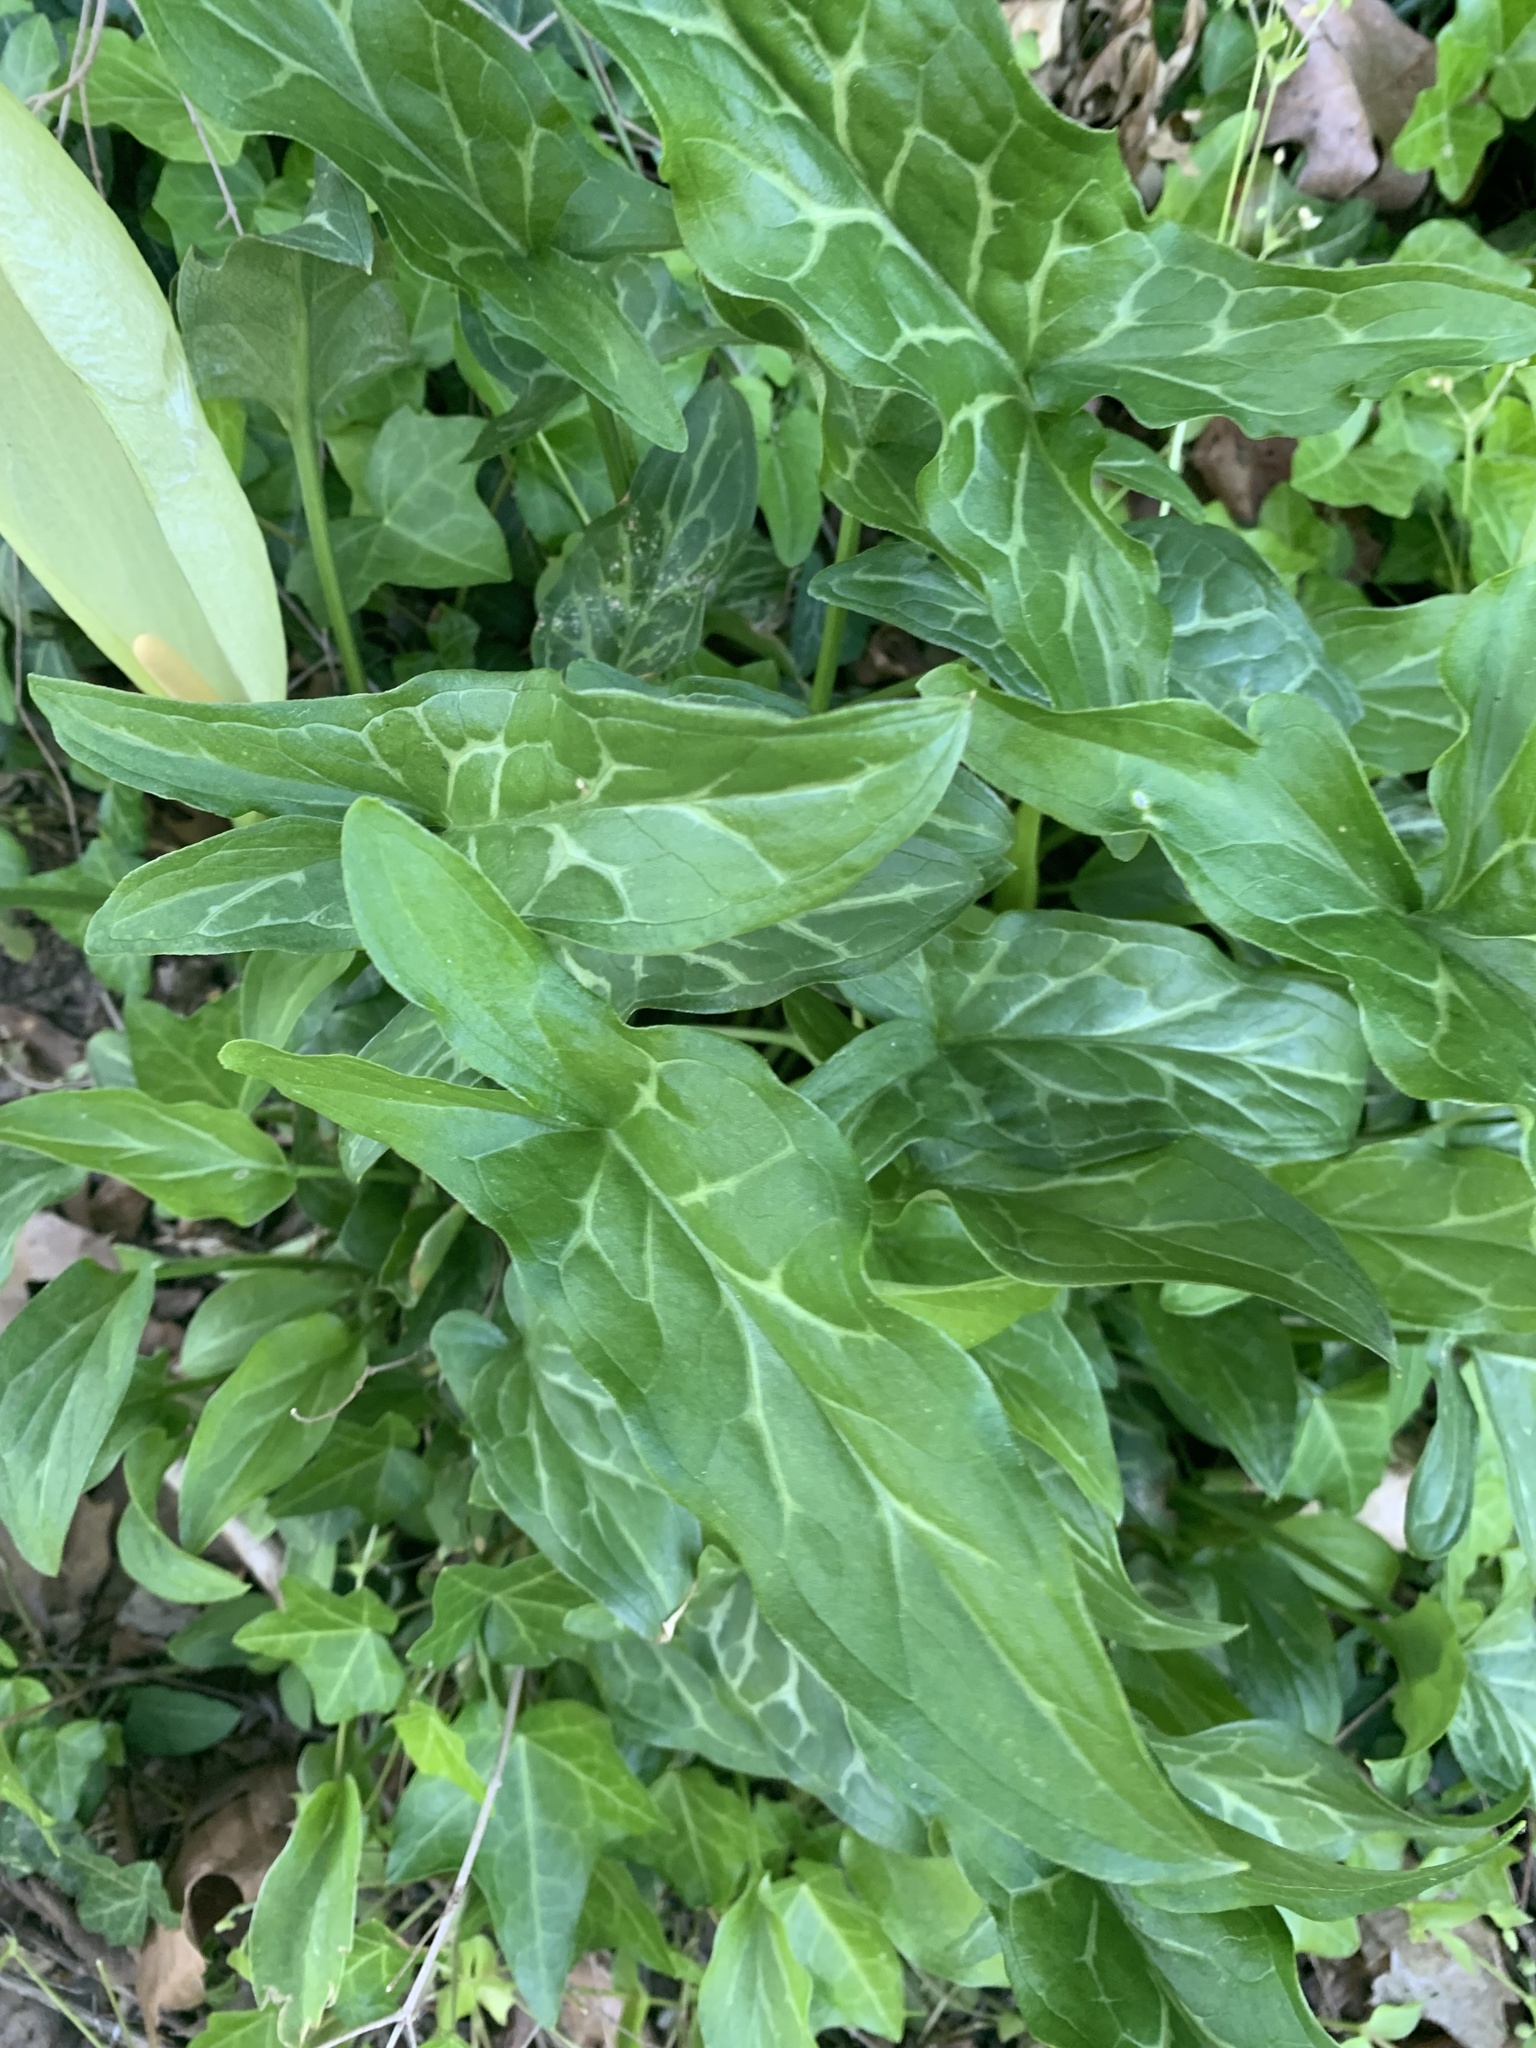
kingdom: Plantae
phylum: Tracheophyta
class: Liliopsida
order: Alismatales
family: Araceae
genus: Arum
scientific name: Arum italicum
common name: Italian lords-and-ladies
